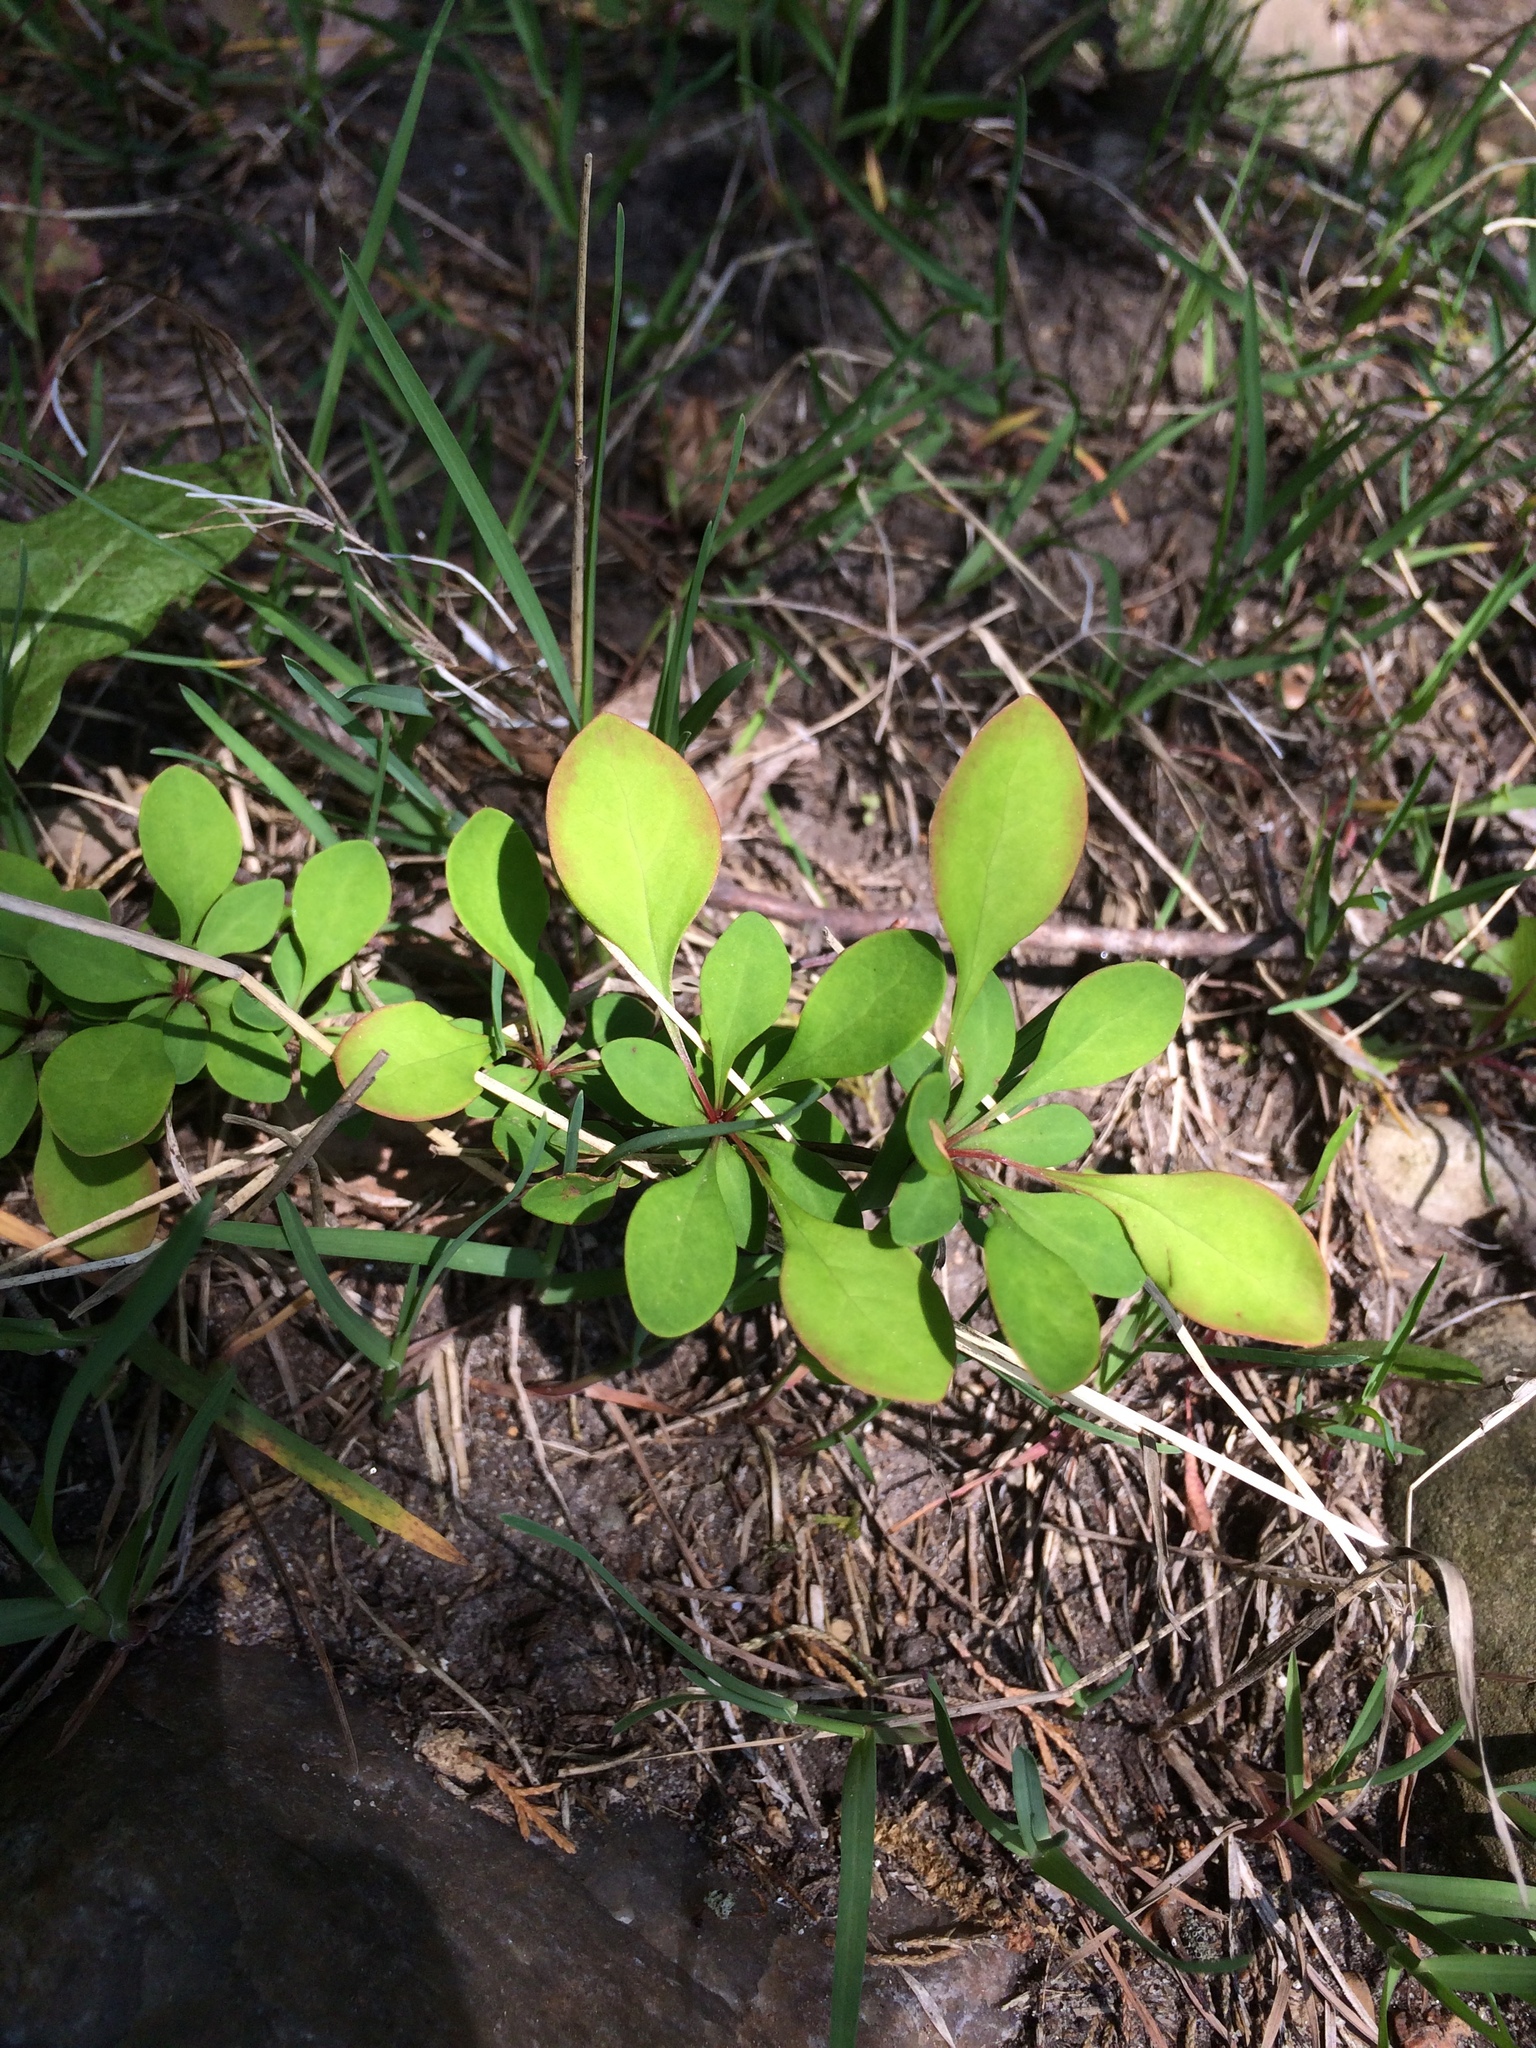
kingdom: Plantae
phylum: Tracheophyta
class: Magnoliopsida
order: Ranunculales
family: Berberidaceae
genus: Berberis
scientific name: Berberis thunbergii
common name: Japanese barberry
